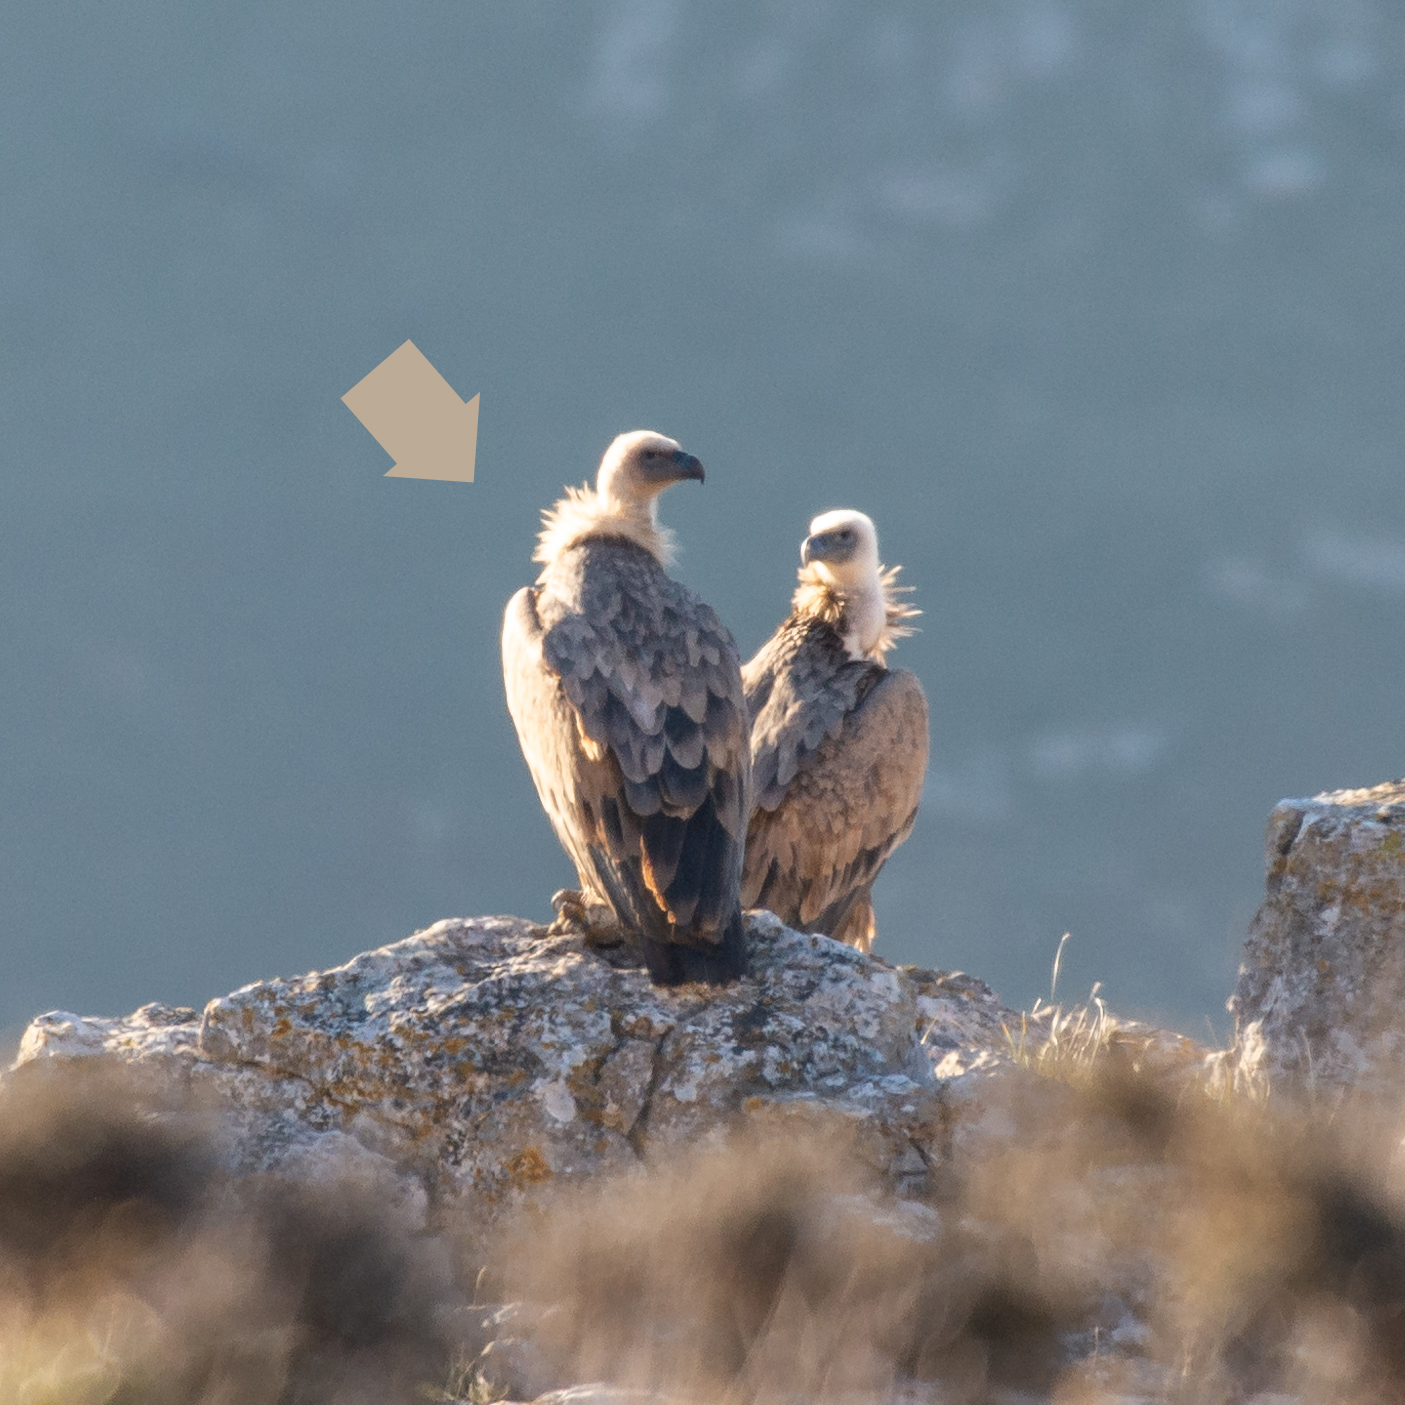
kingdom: Animalia
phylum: Chordata
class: Aves
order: Accipitriformes
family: Accipitridae
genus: Gyps
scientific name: Gyps fulvus
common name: Griffon vulture
